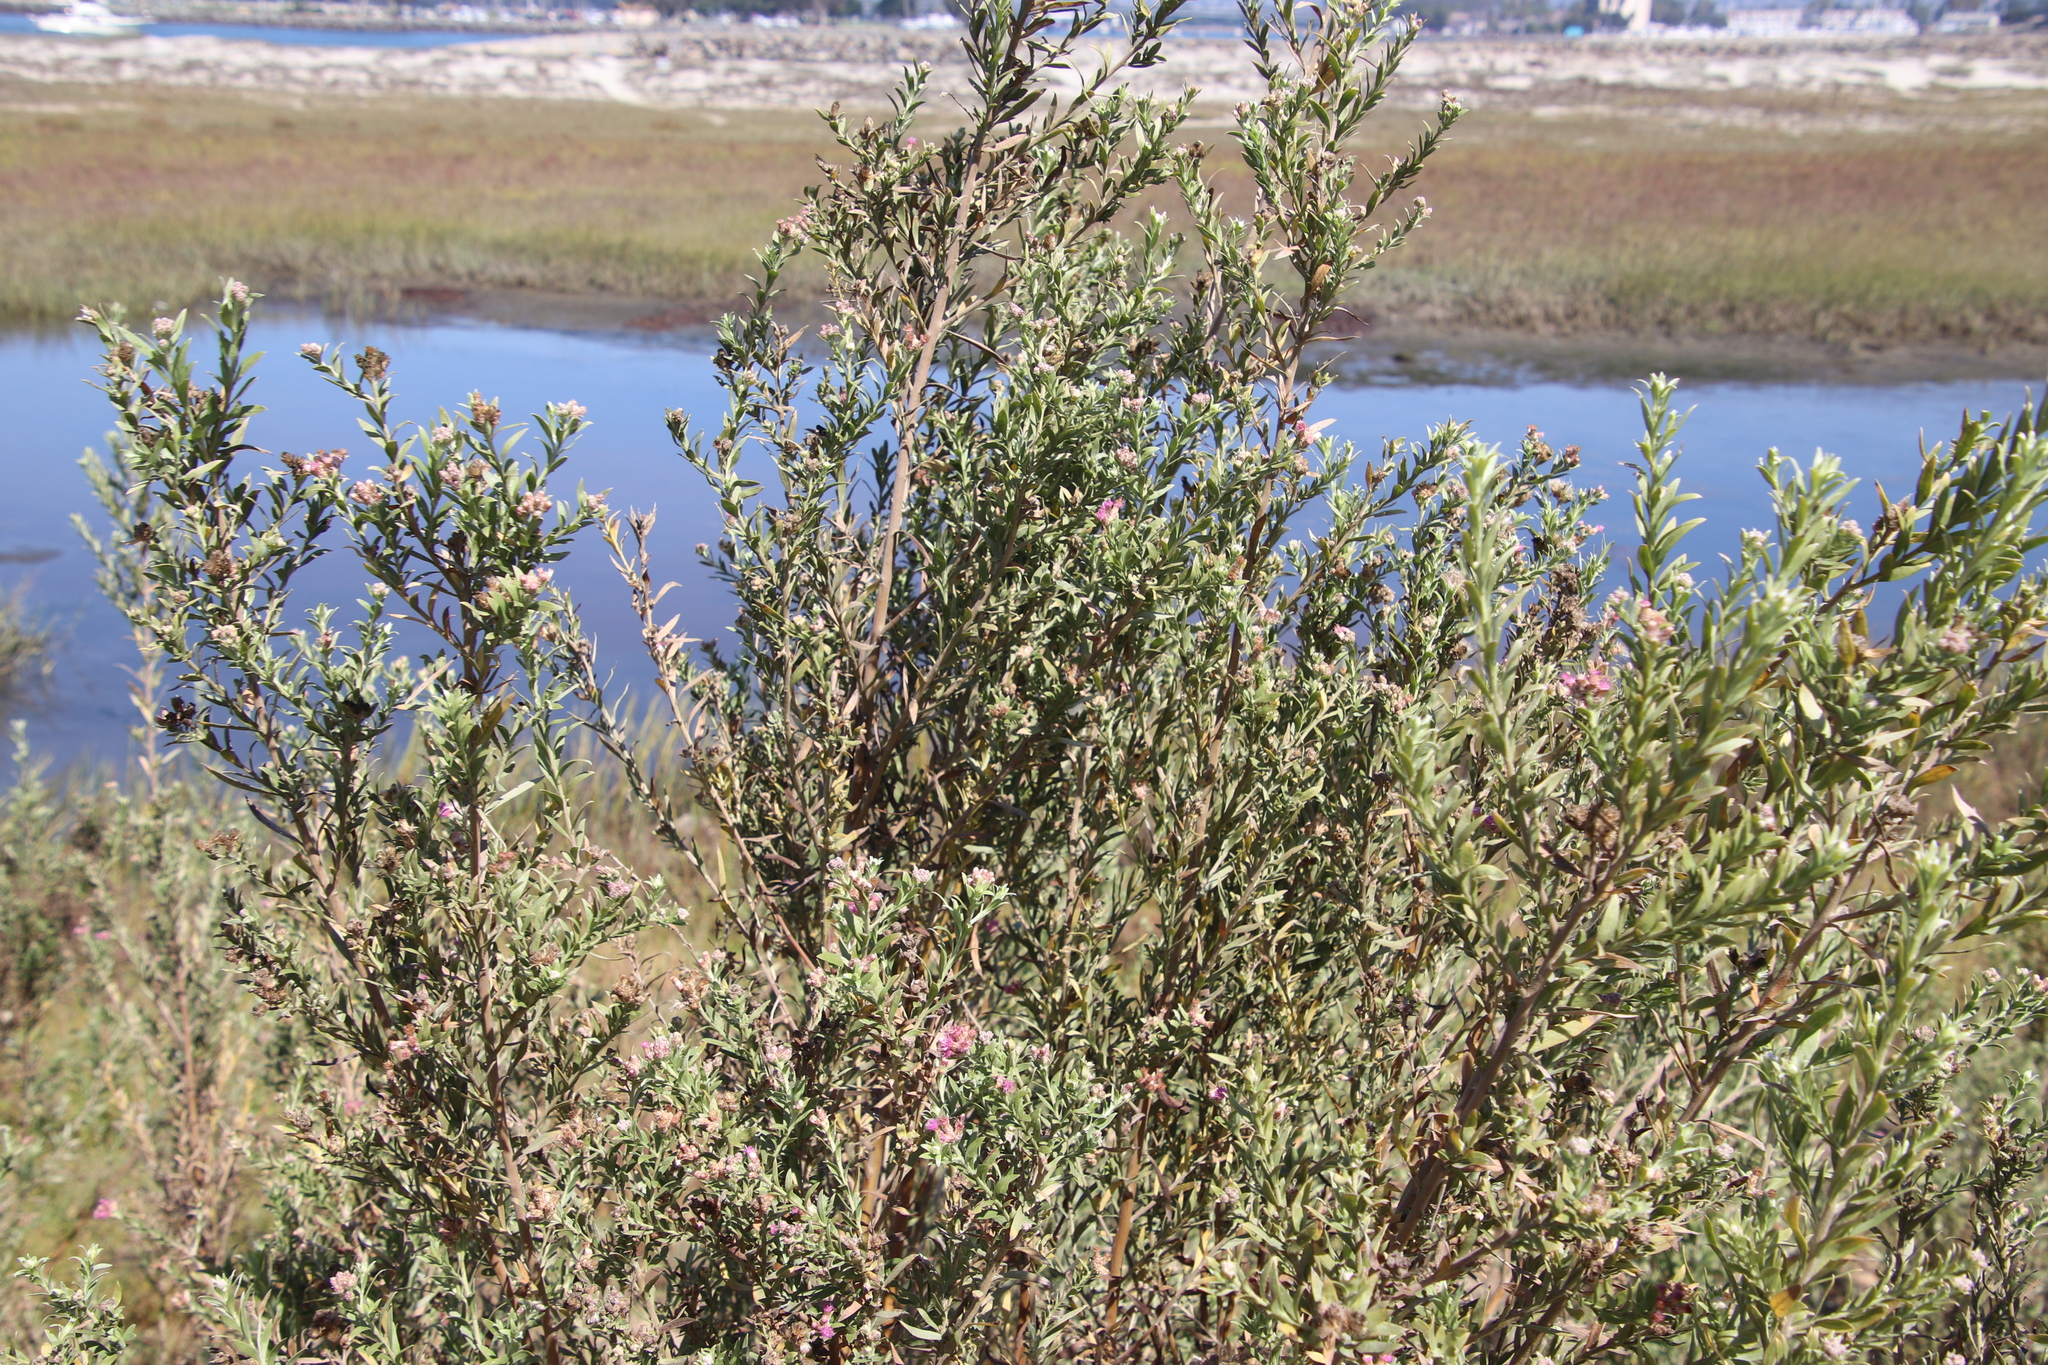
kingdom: Plantae
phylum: Tracheophyta
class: Magnoliopsida
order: Asterales
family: Asteraceae
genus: Pluchea
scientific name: Pluchea sericea
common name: Arrow-weed
